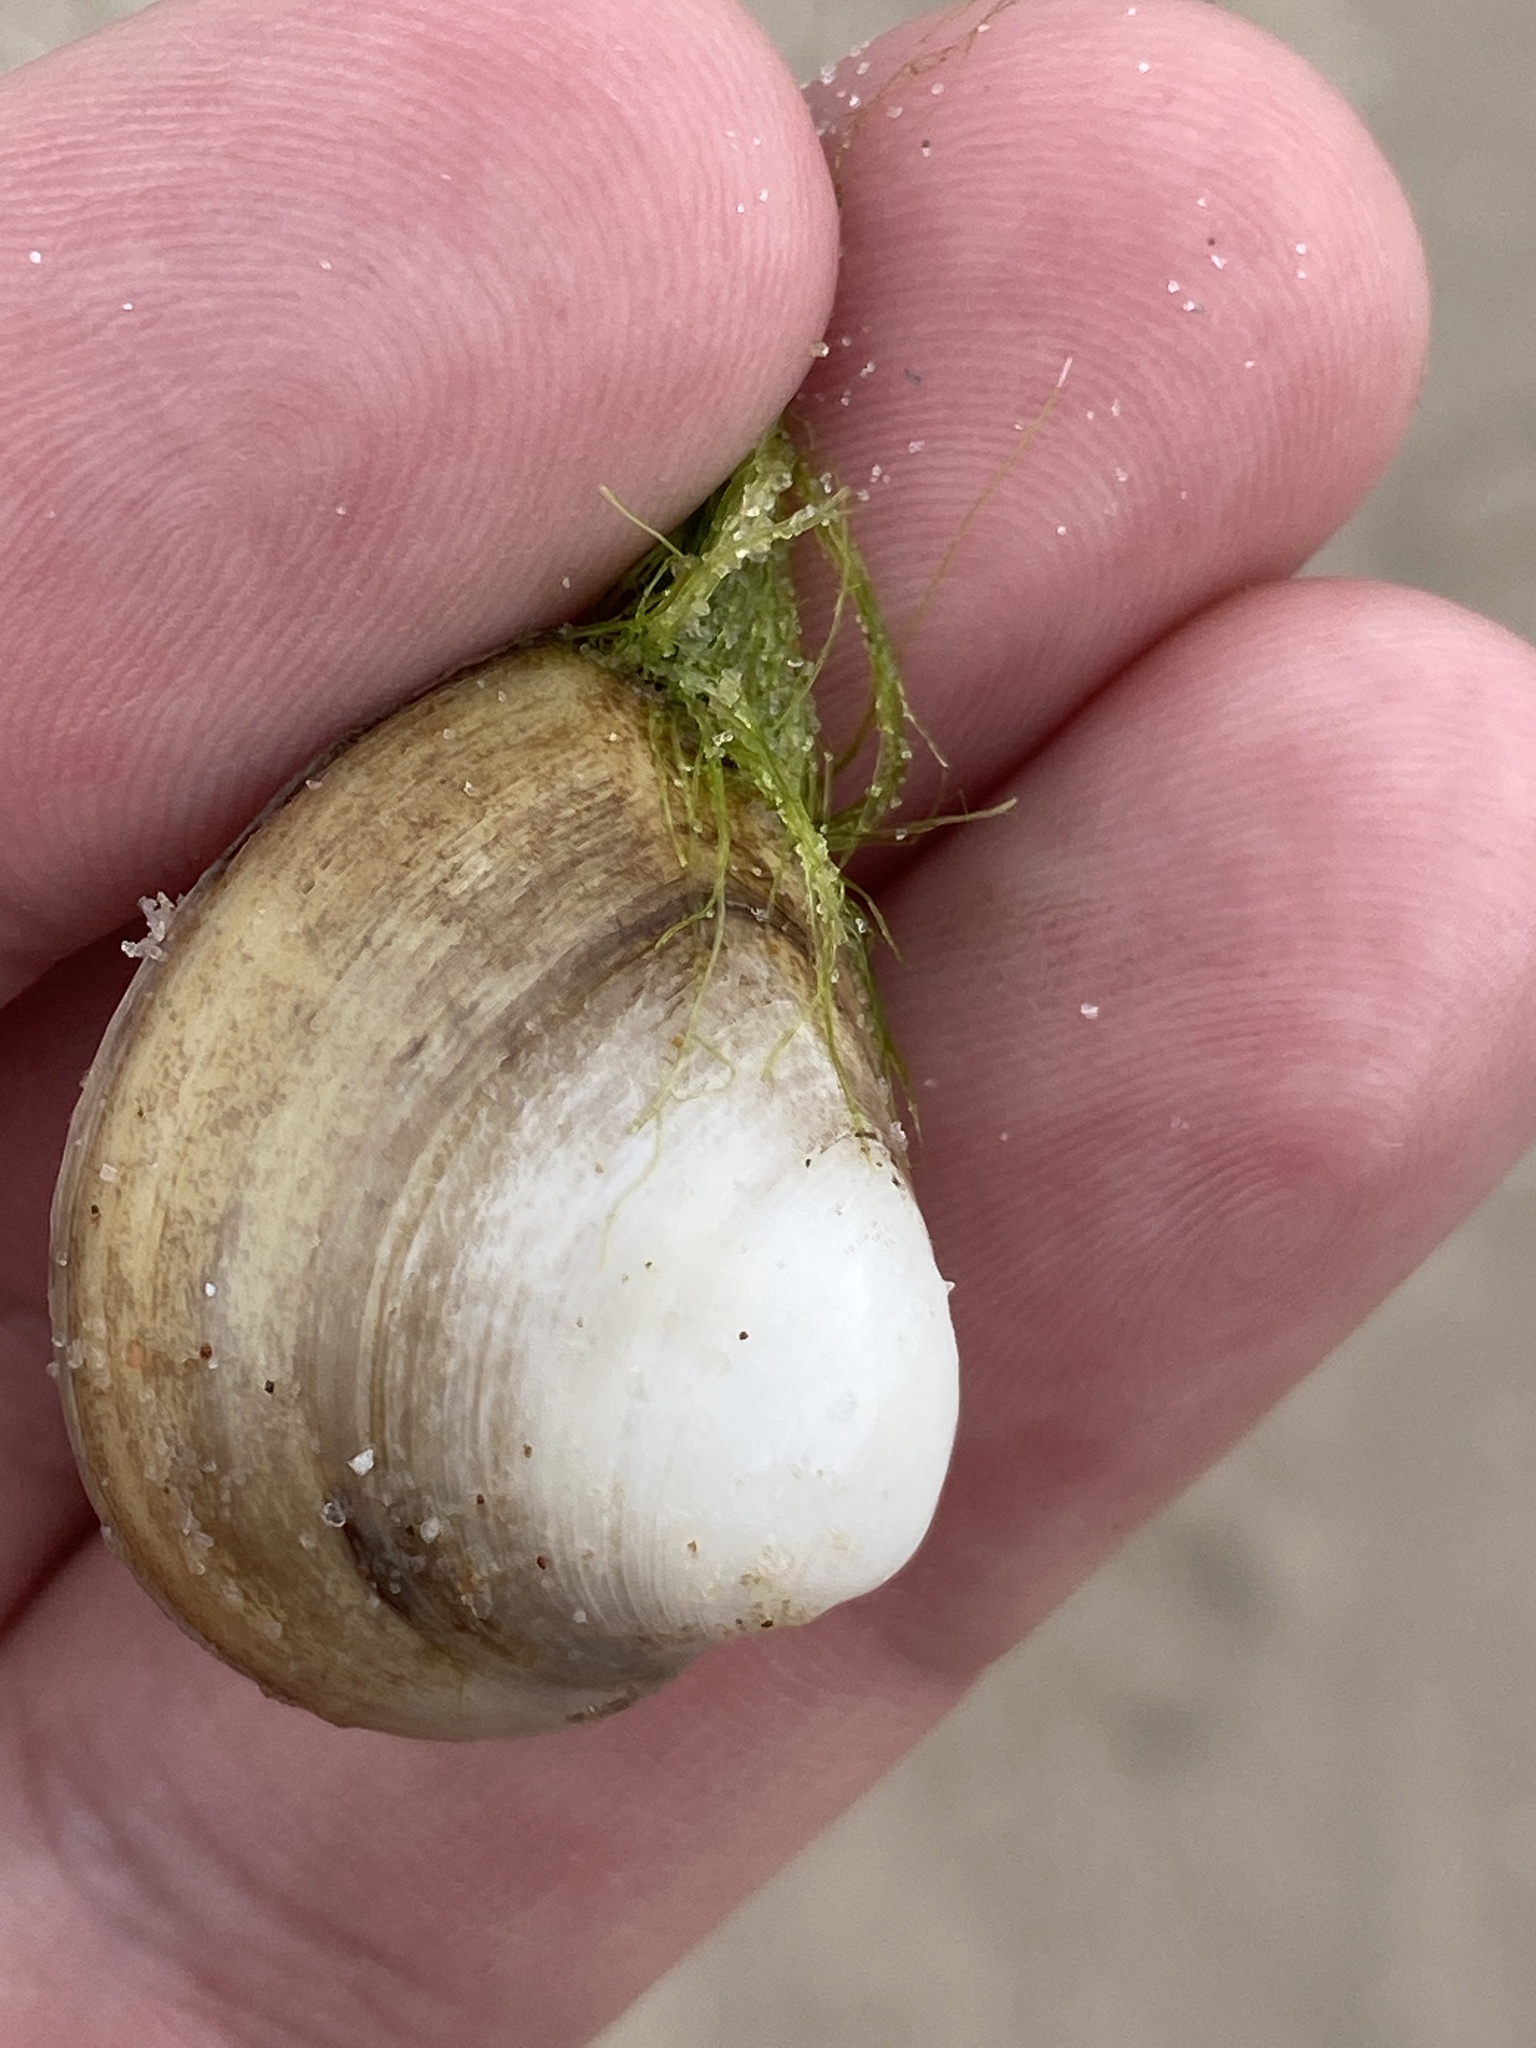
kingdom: Animalia
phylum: Mollusca
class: Bivalvia
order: Venerida
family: Mactridae
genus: Rangia
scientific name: Rangia cuneata
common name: Atlantic rangia
